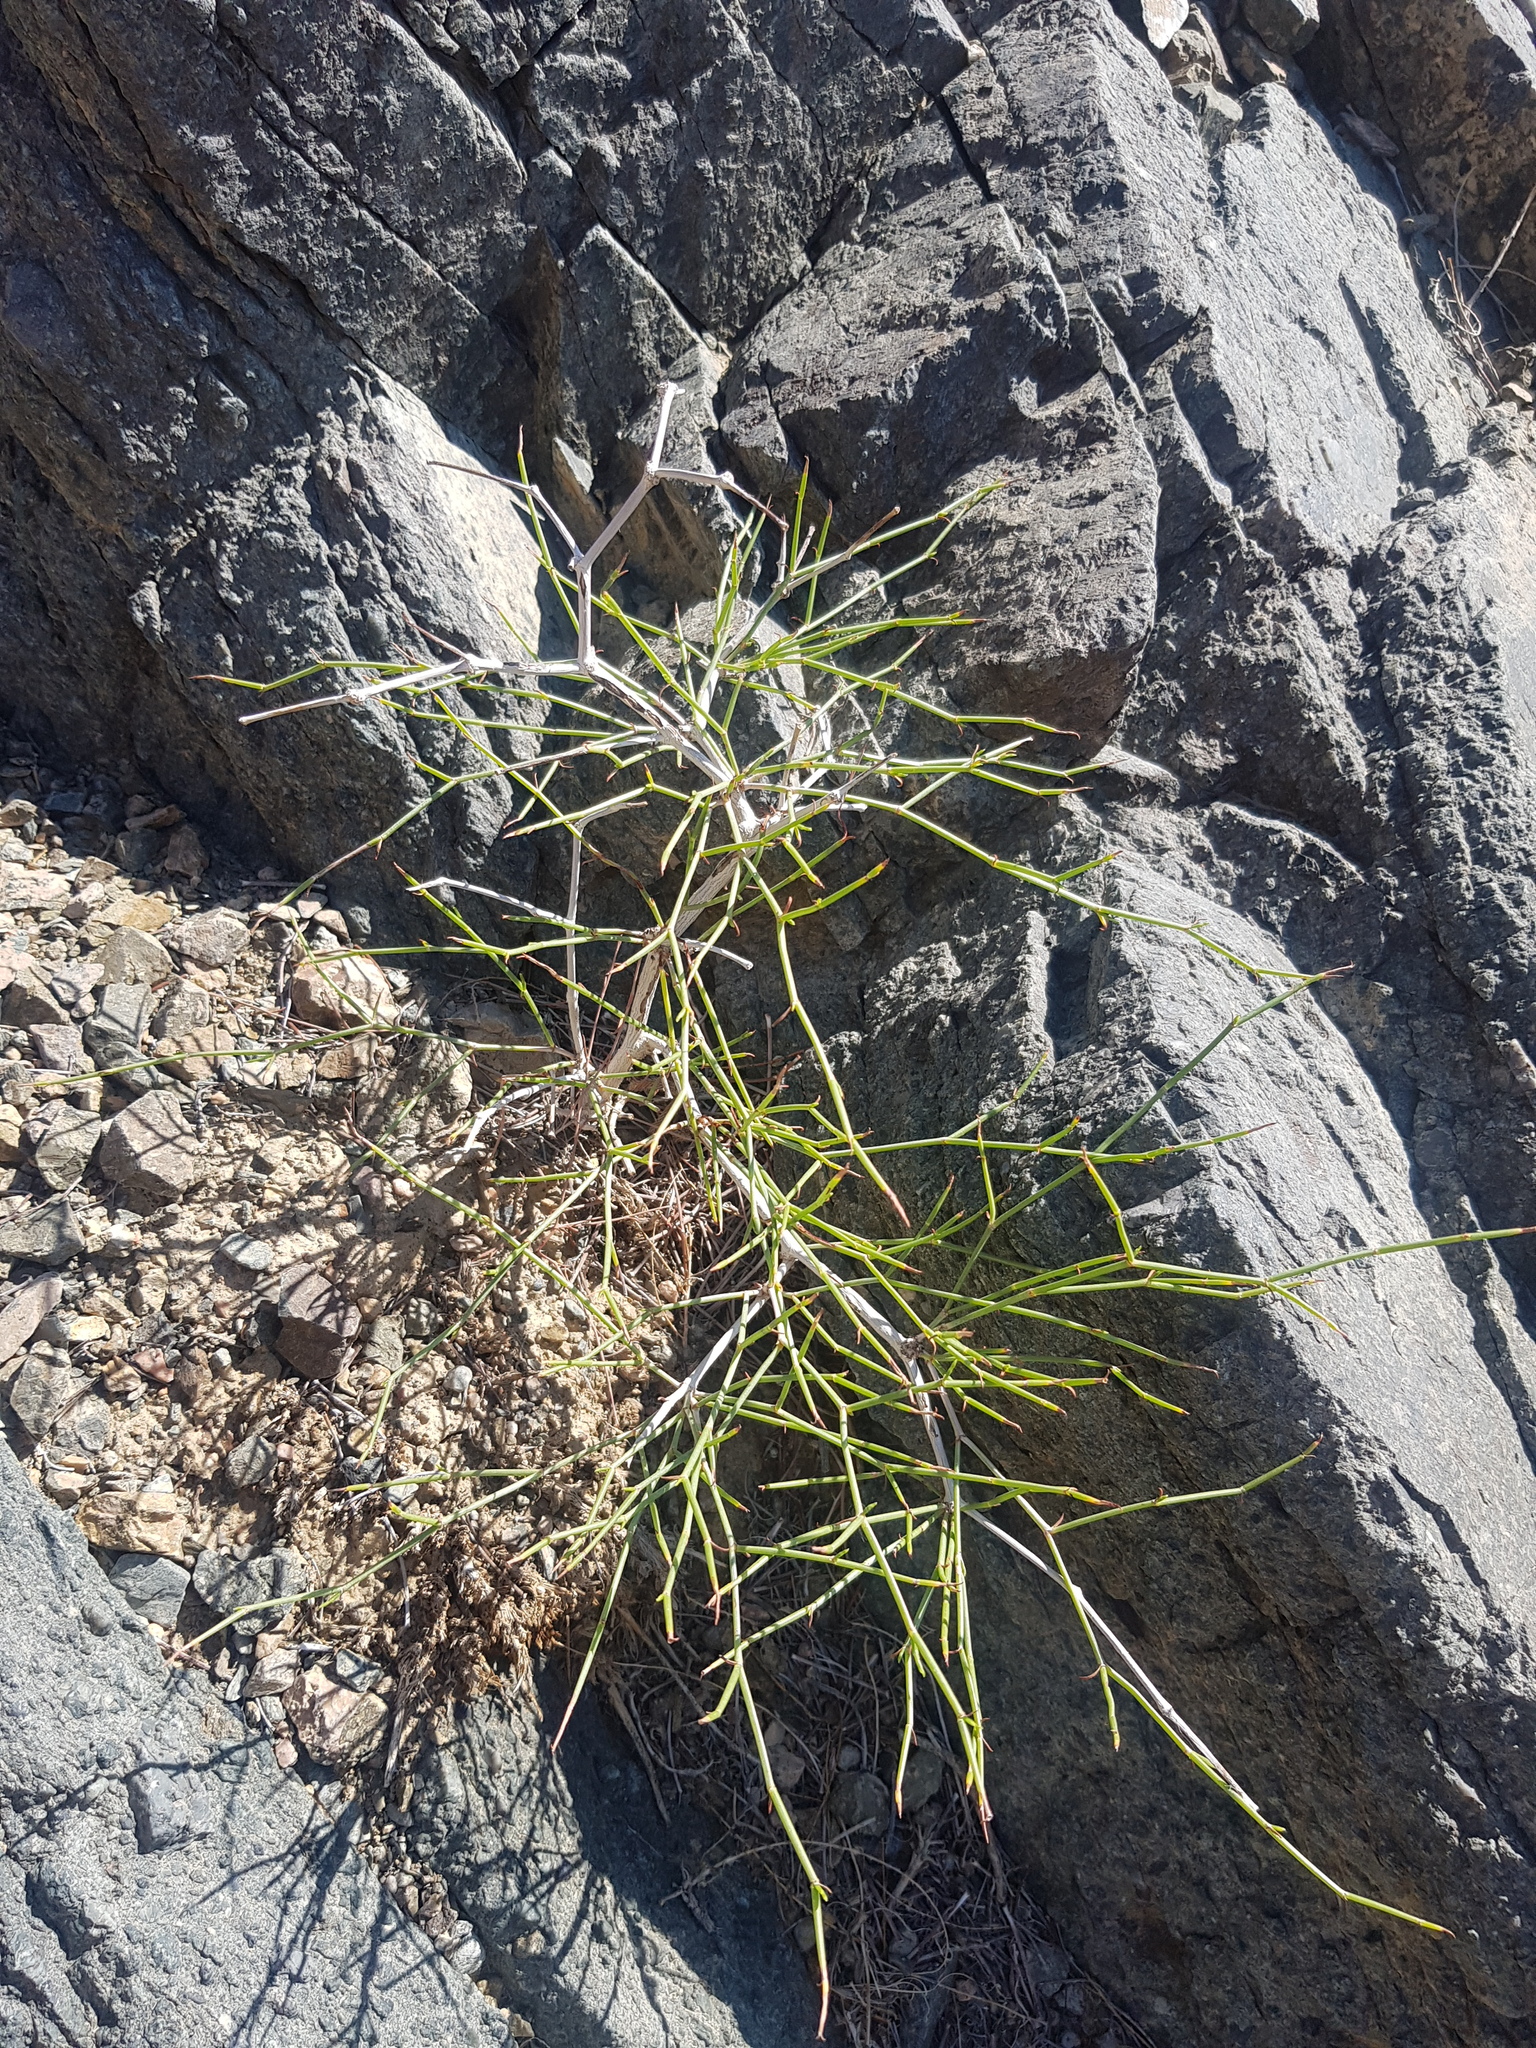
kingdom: Plantae
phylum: Tracheophyta
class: Magnoliopsida
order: Caryophyllales
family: Polygonaceae
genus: Calligonum
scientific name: Calligonum mongolicum
